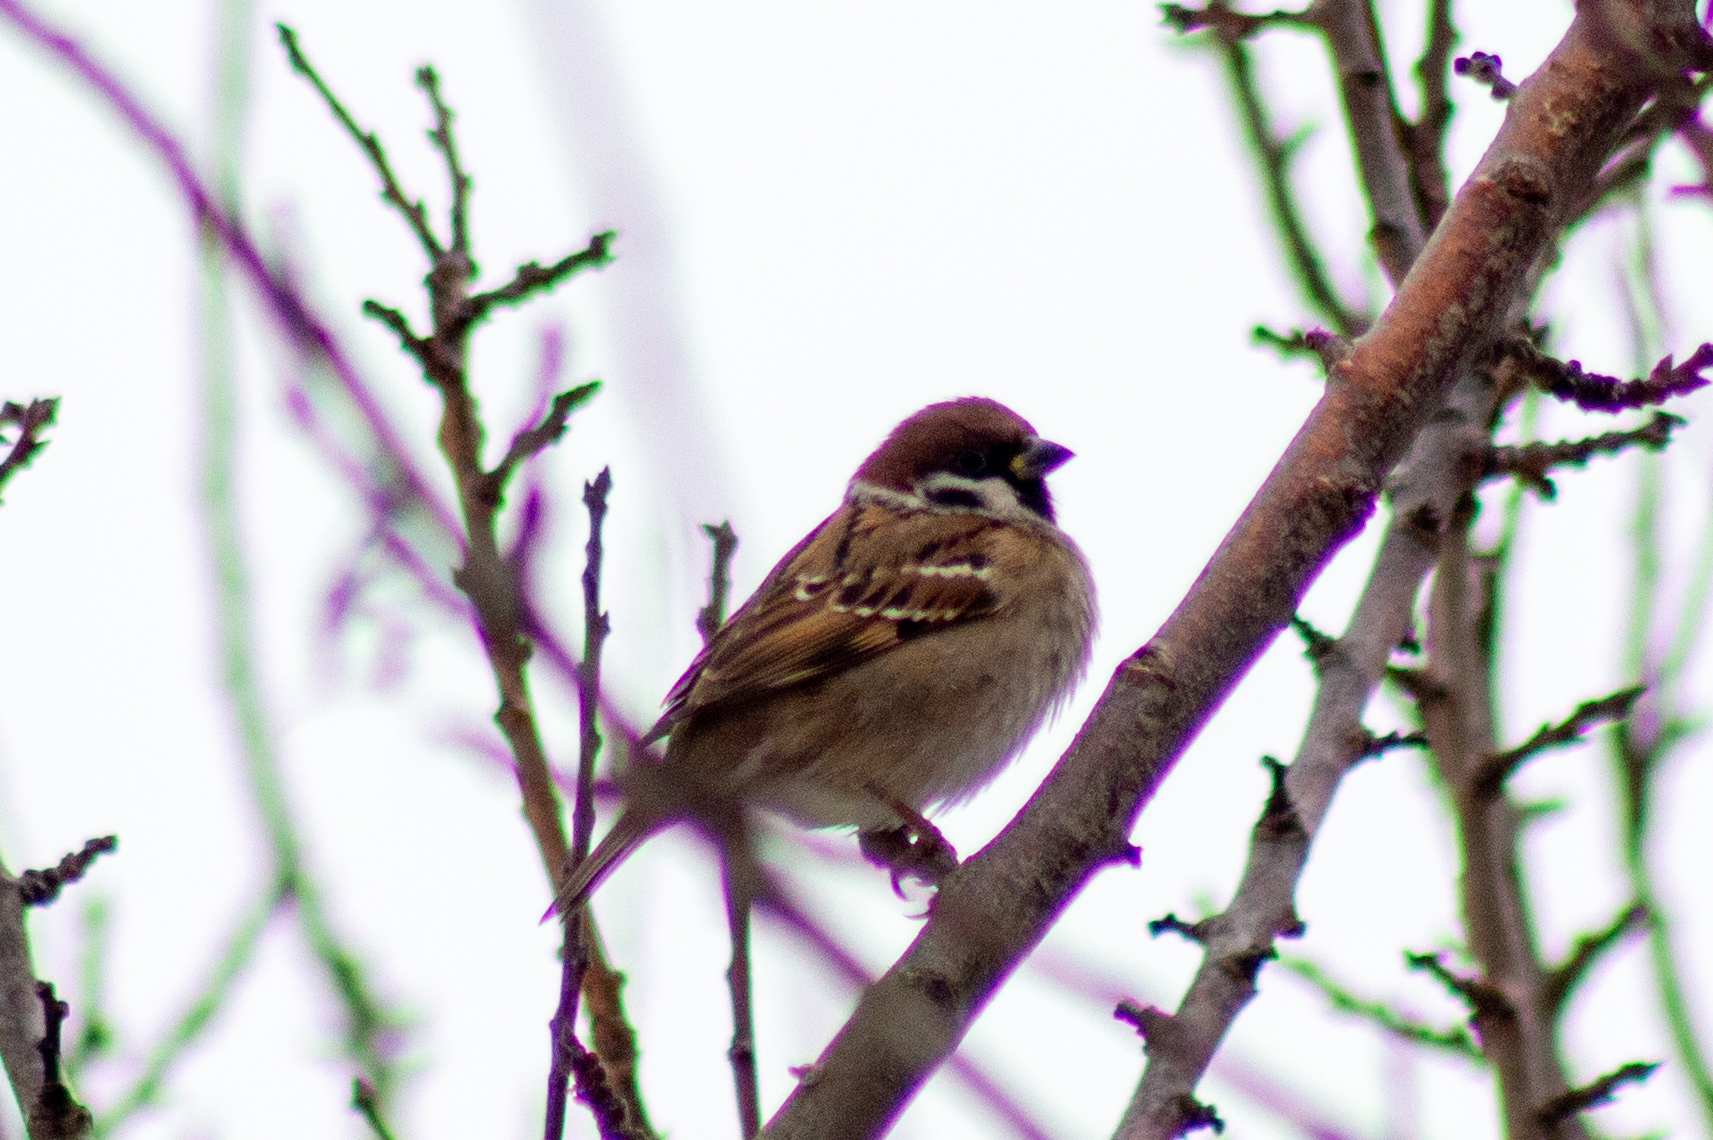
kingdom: Animalia
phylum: Chordata
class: Aves
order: Passeriformes
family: Passeridae
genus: Passer
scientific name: Passer montanus
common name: Eurasian tree sparrow
